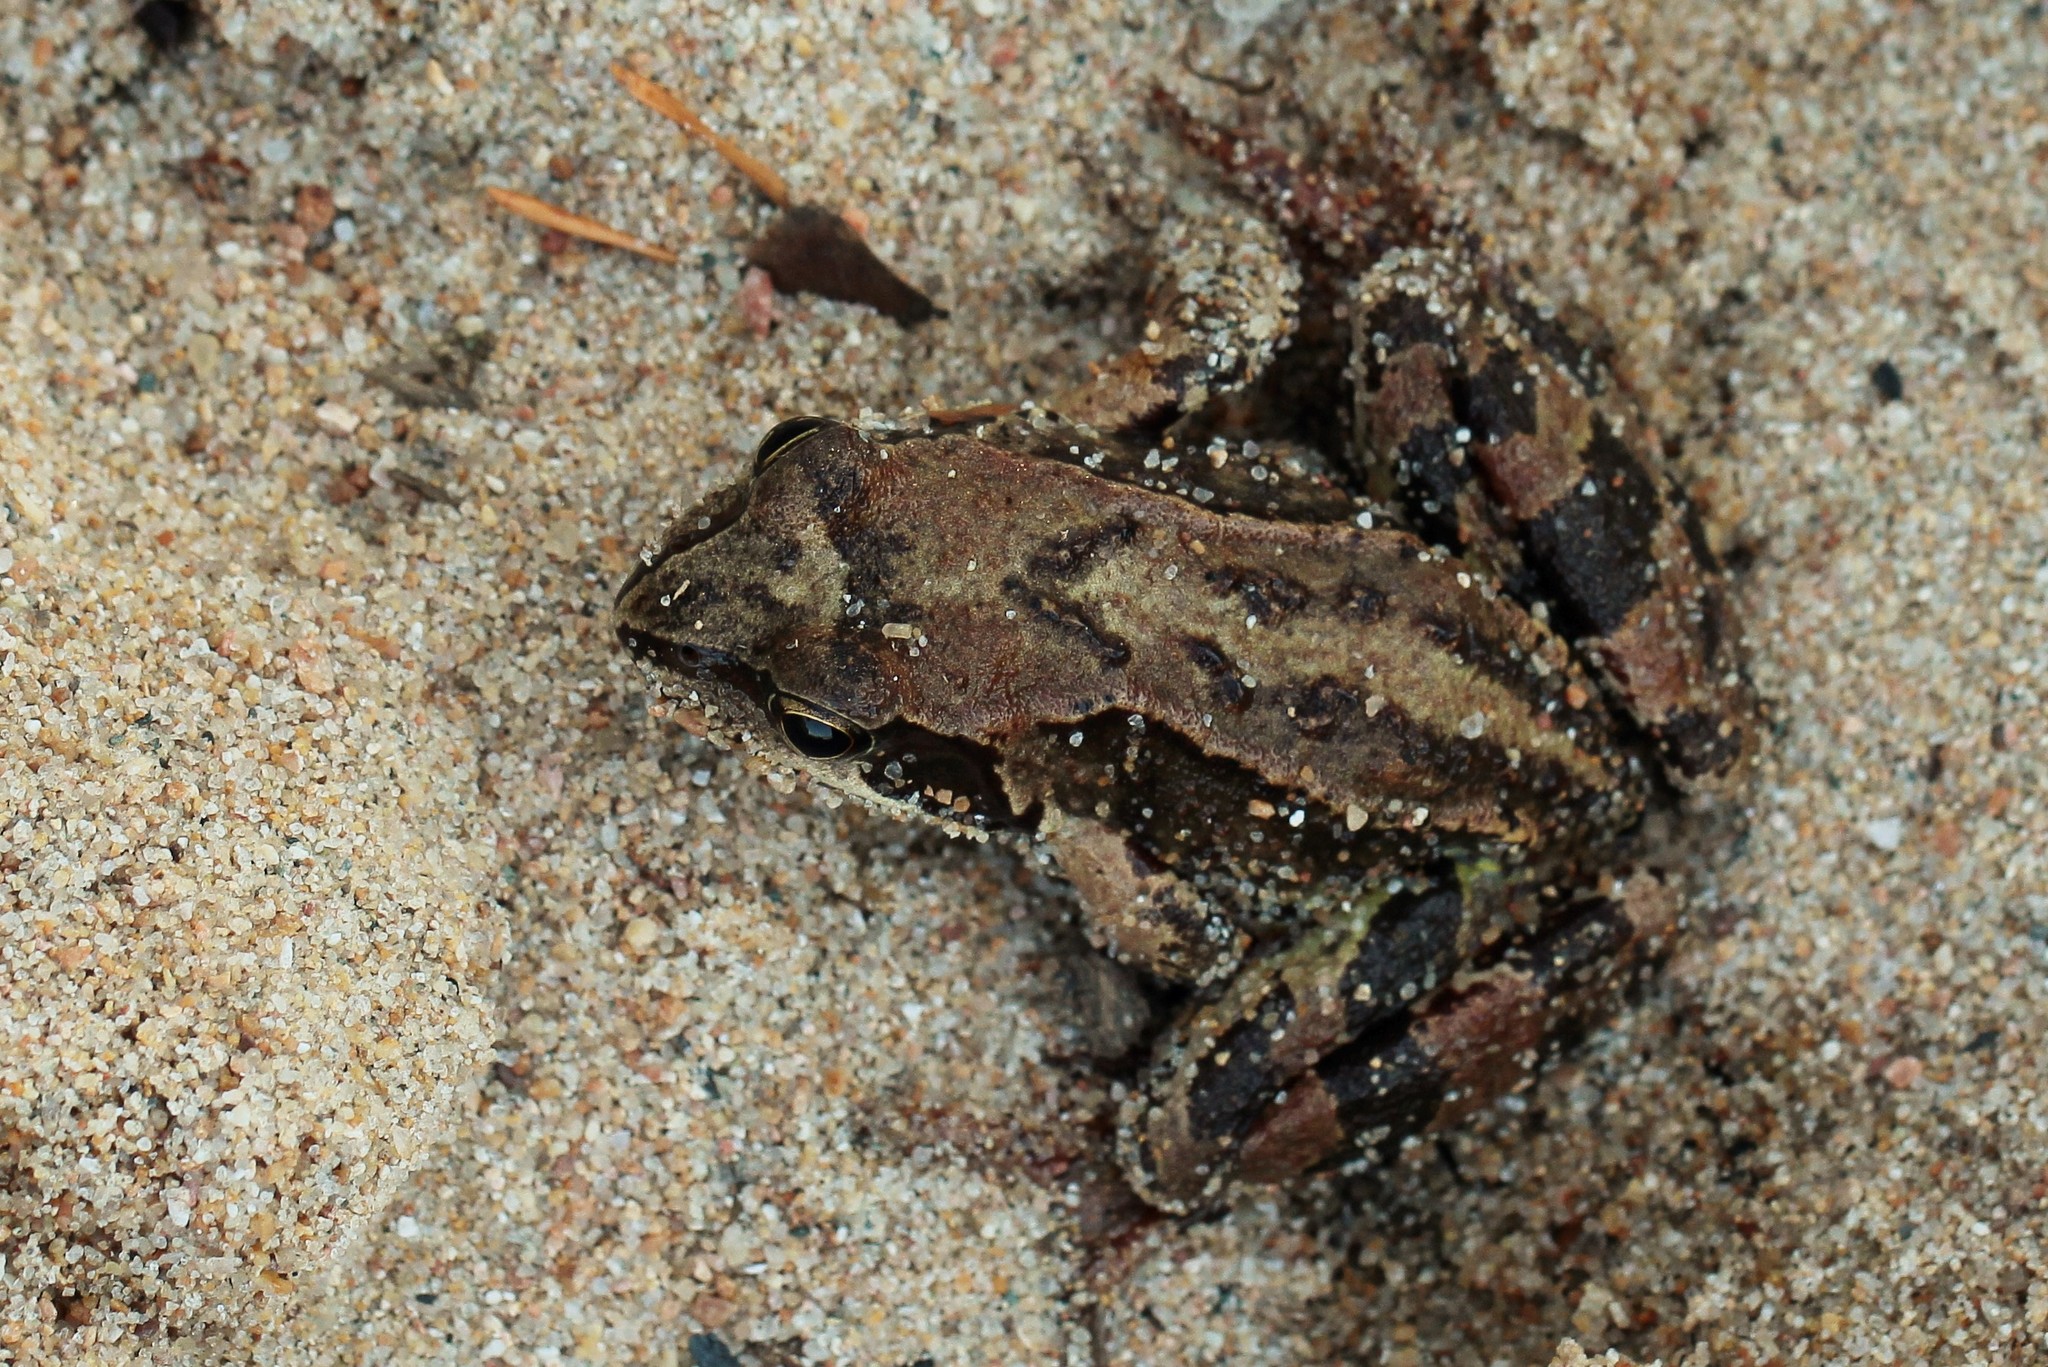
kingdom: Animalia
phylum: Chordata
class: Amphibia
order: Anura
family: Ranidae
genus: Rana
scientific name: Rana temporaria
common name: Common frog
